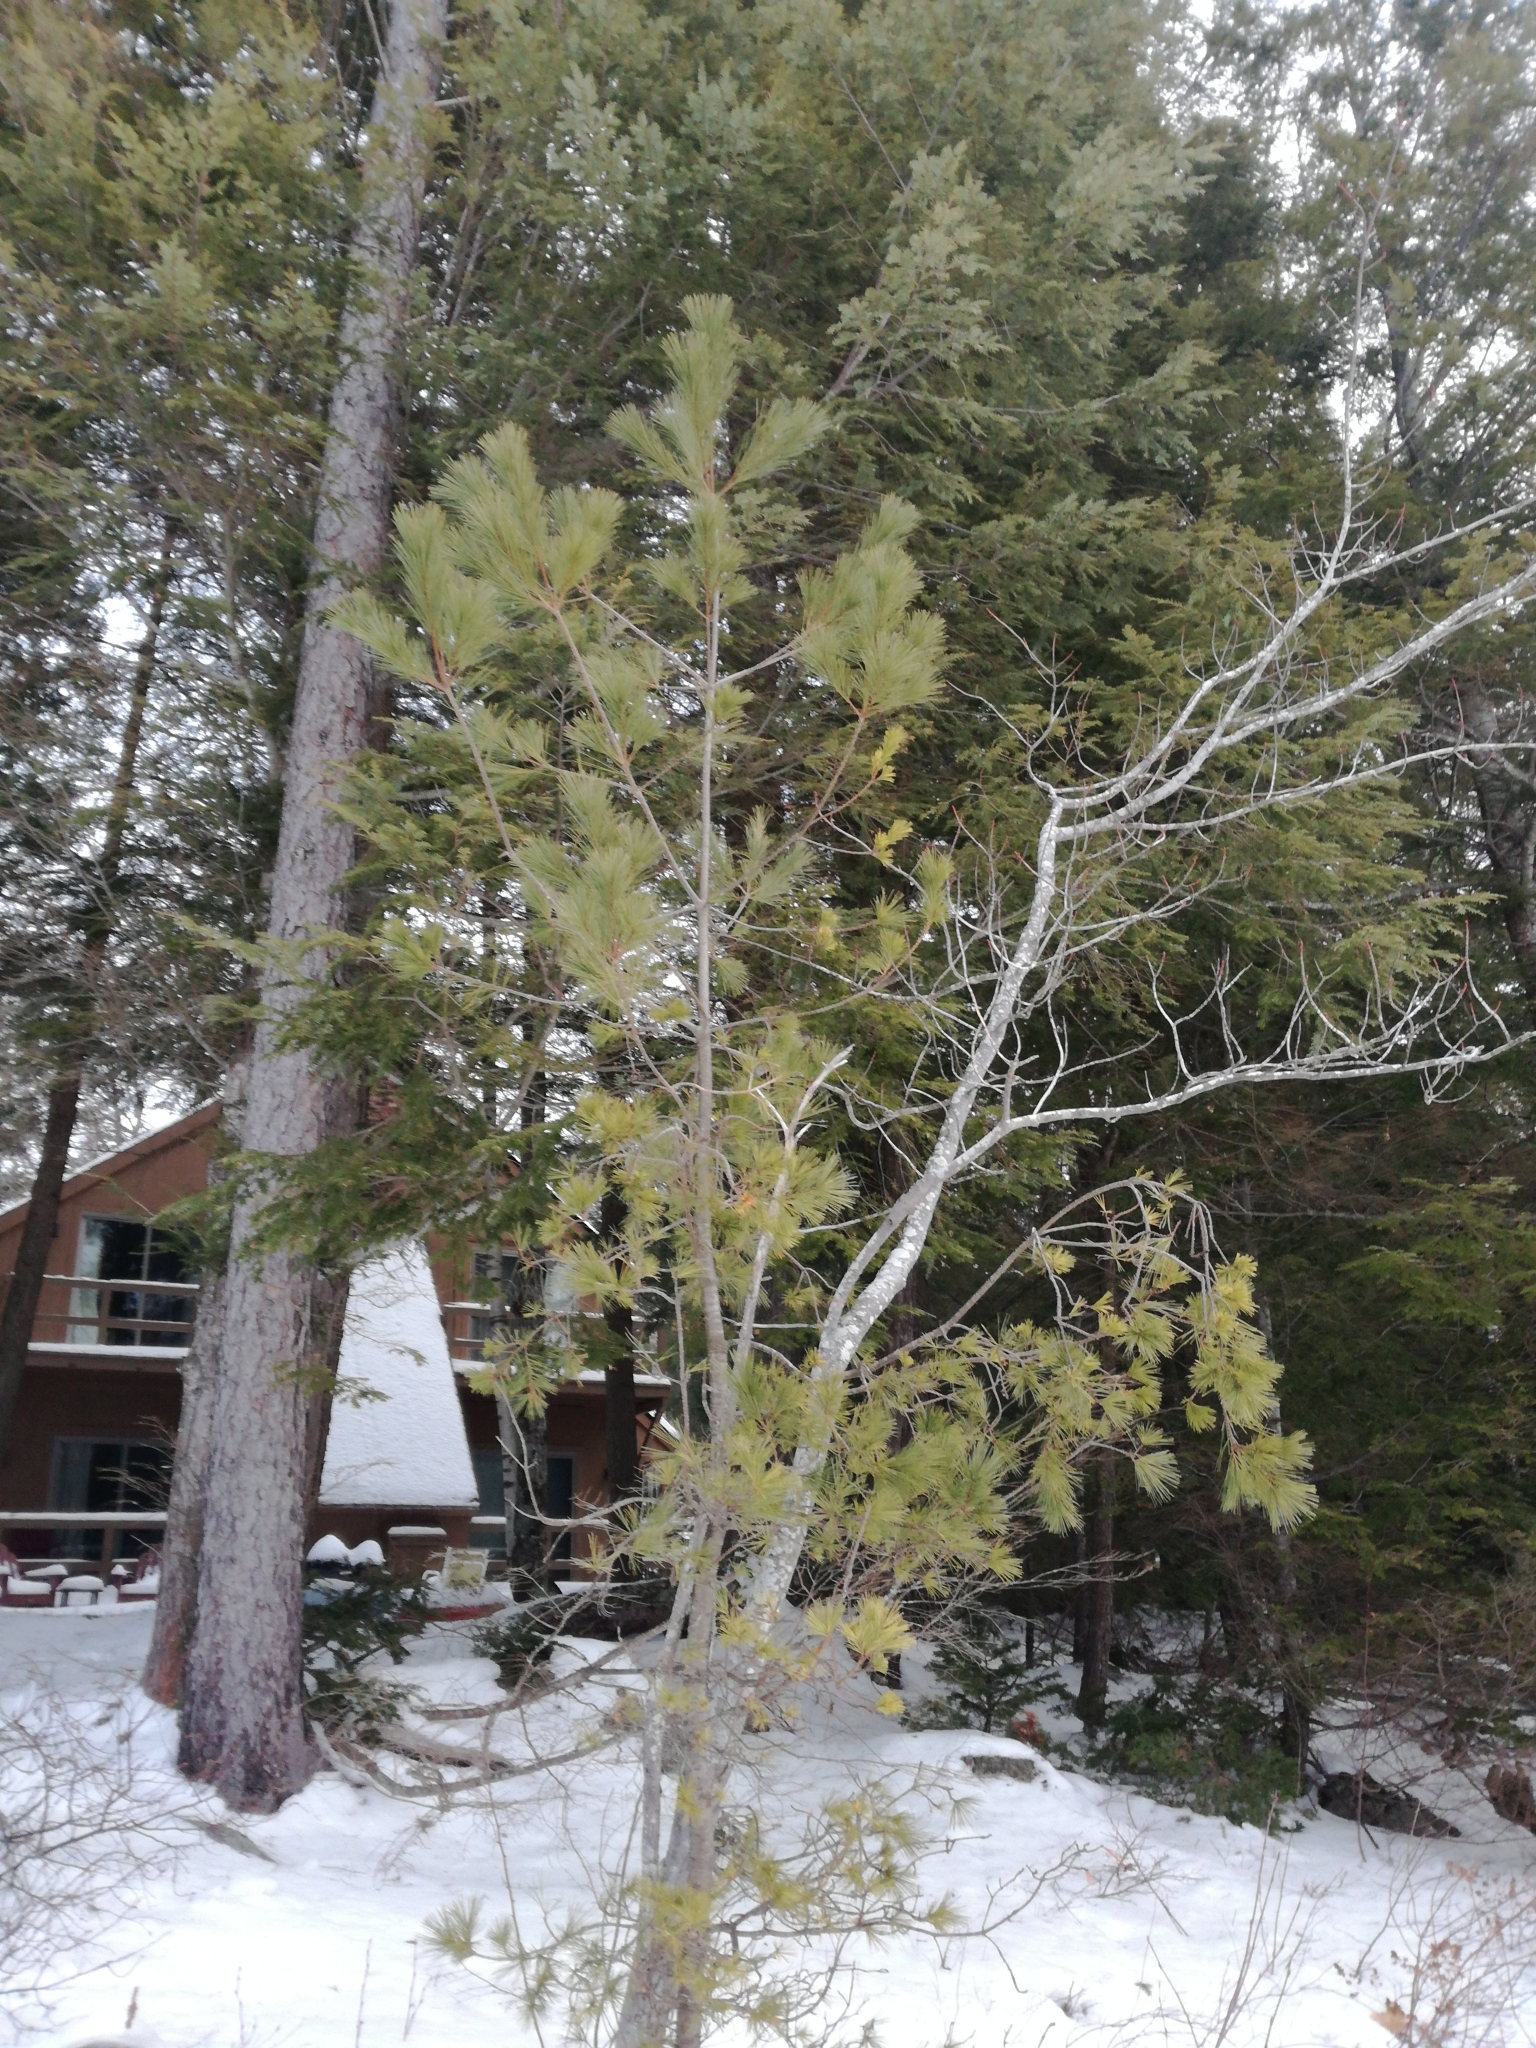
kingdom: Plantae
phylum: Tracheophyta
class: Pinopsida
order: Pinales
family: Pinaceae
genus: Pinus
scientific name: Pinus strobus
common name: Weymouth pine
